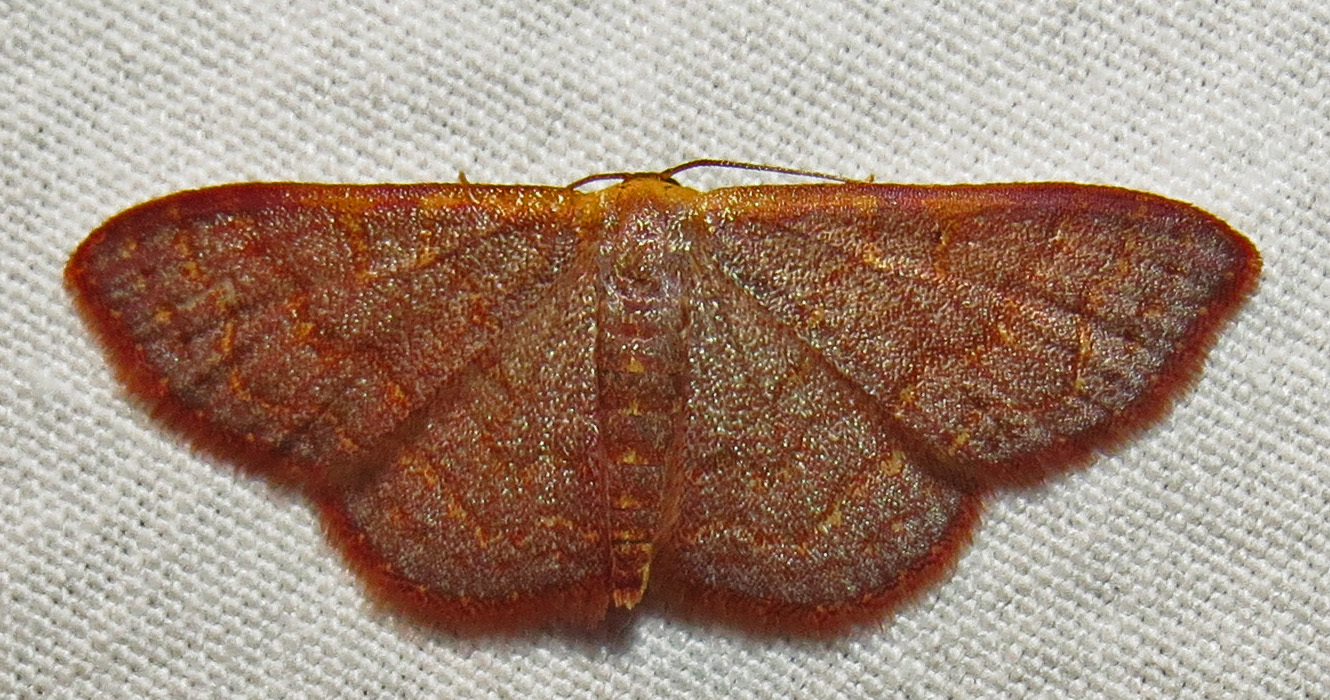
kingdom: Animalia
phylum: Arthropoda
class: Insecta
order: Lepidoptera
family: Geometridae
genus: Leptostales
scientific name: Leptostales pannaria
